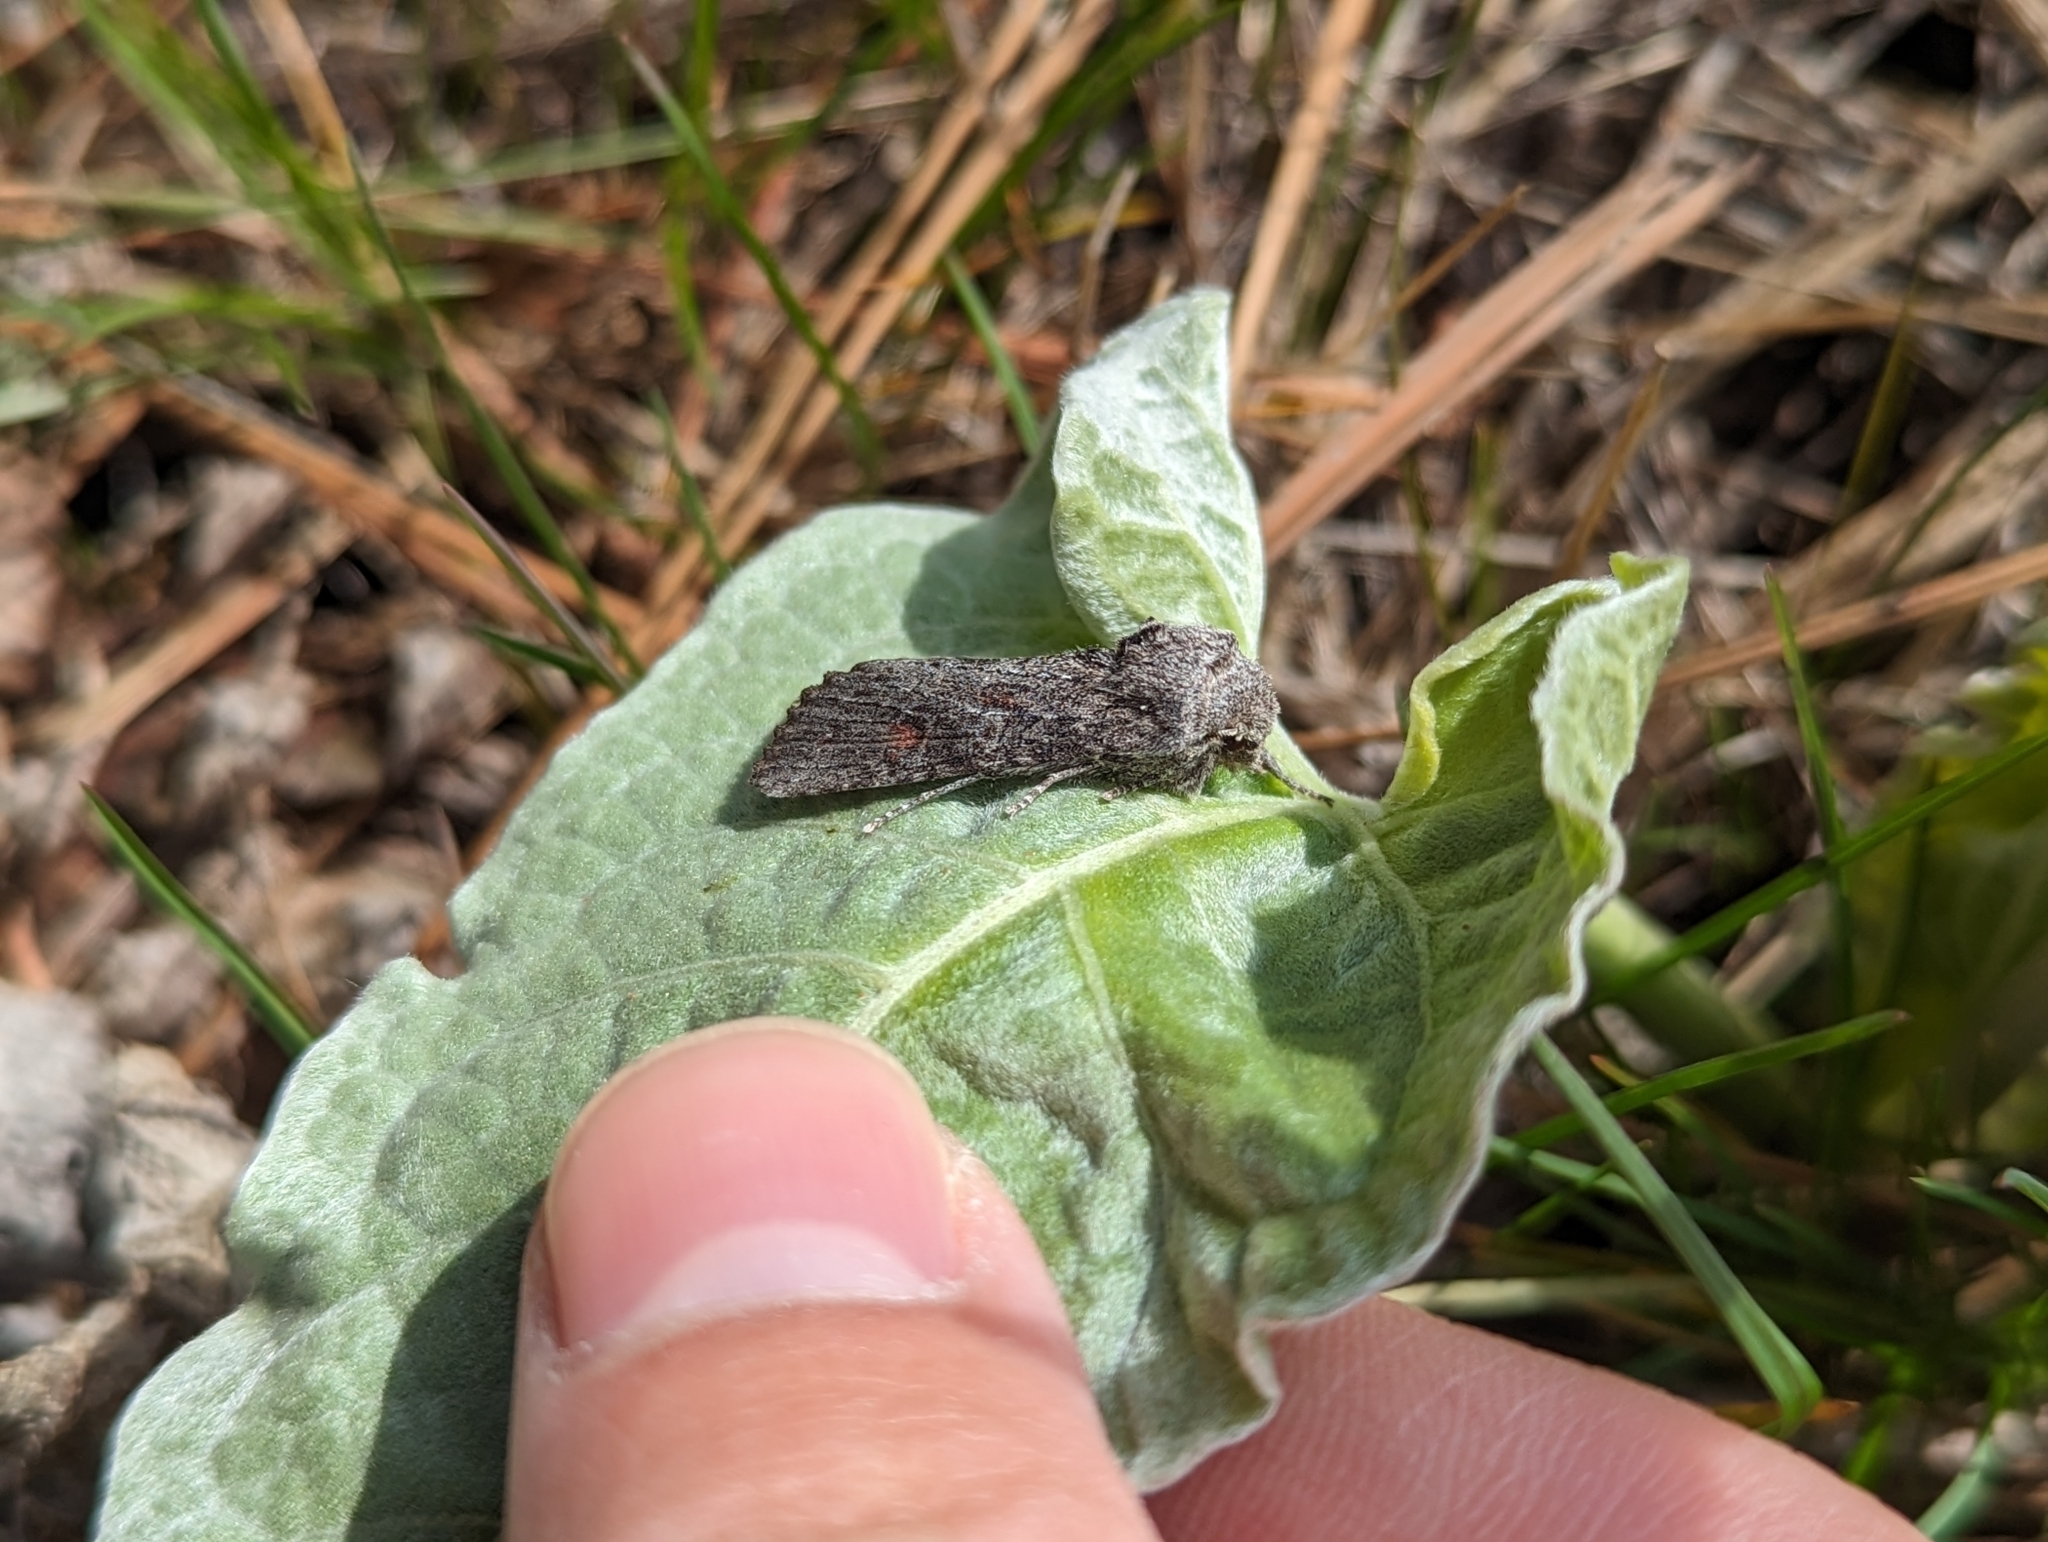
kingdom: Animalia
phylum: Arthropoda
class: Insecta
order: Lepidoptera
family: Noctuidae
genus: Egira
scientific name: Egira curialis
